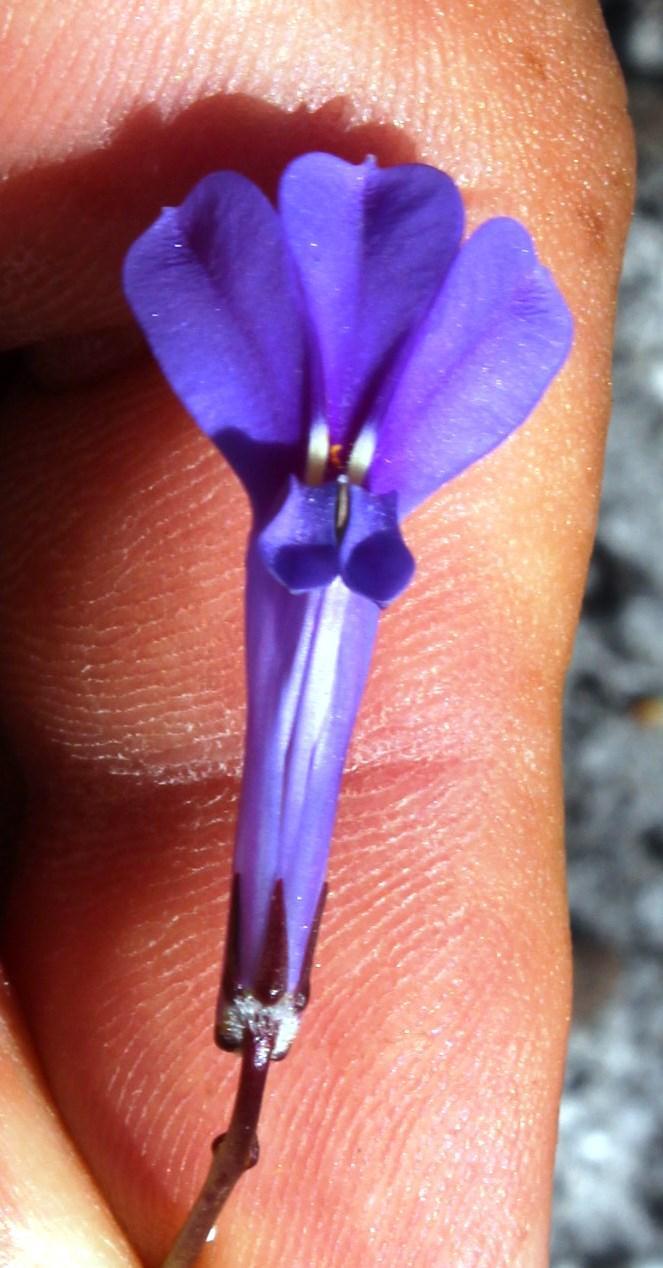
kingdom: Plantae
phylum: Tracheophyta
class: Magnoliopsida
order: Asterales
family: Campanulaceae
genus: Lobelia
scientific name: Lobelia coronopifolia
